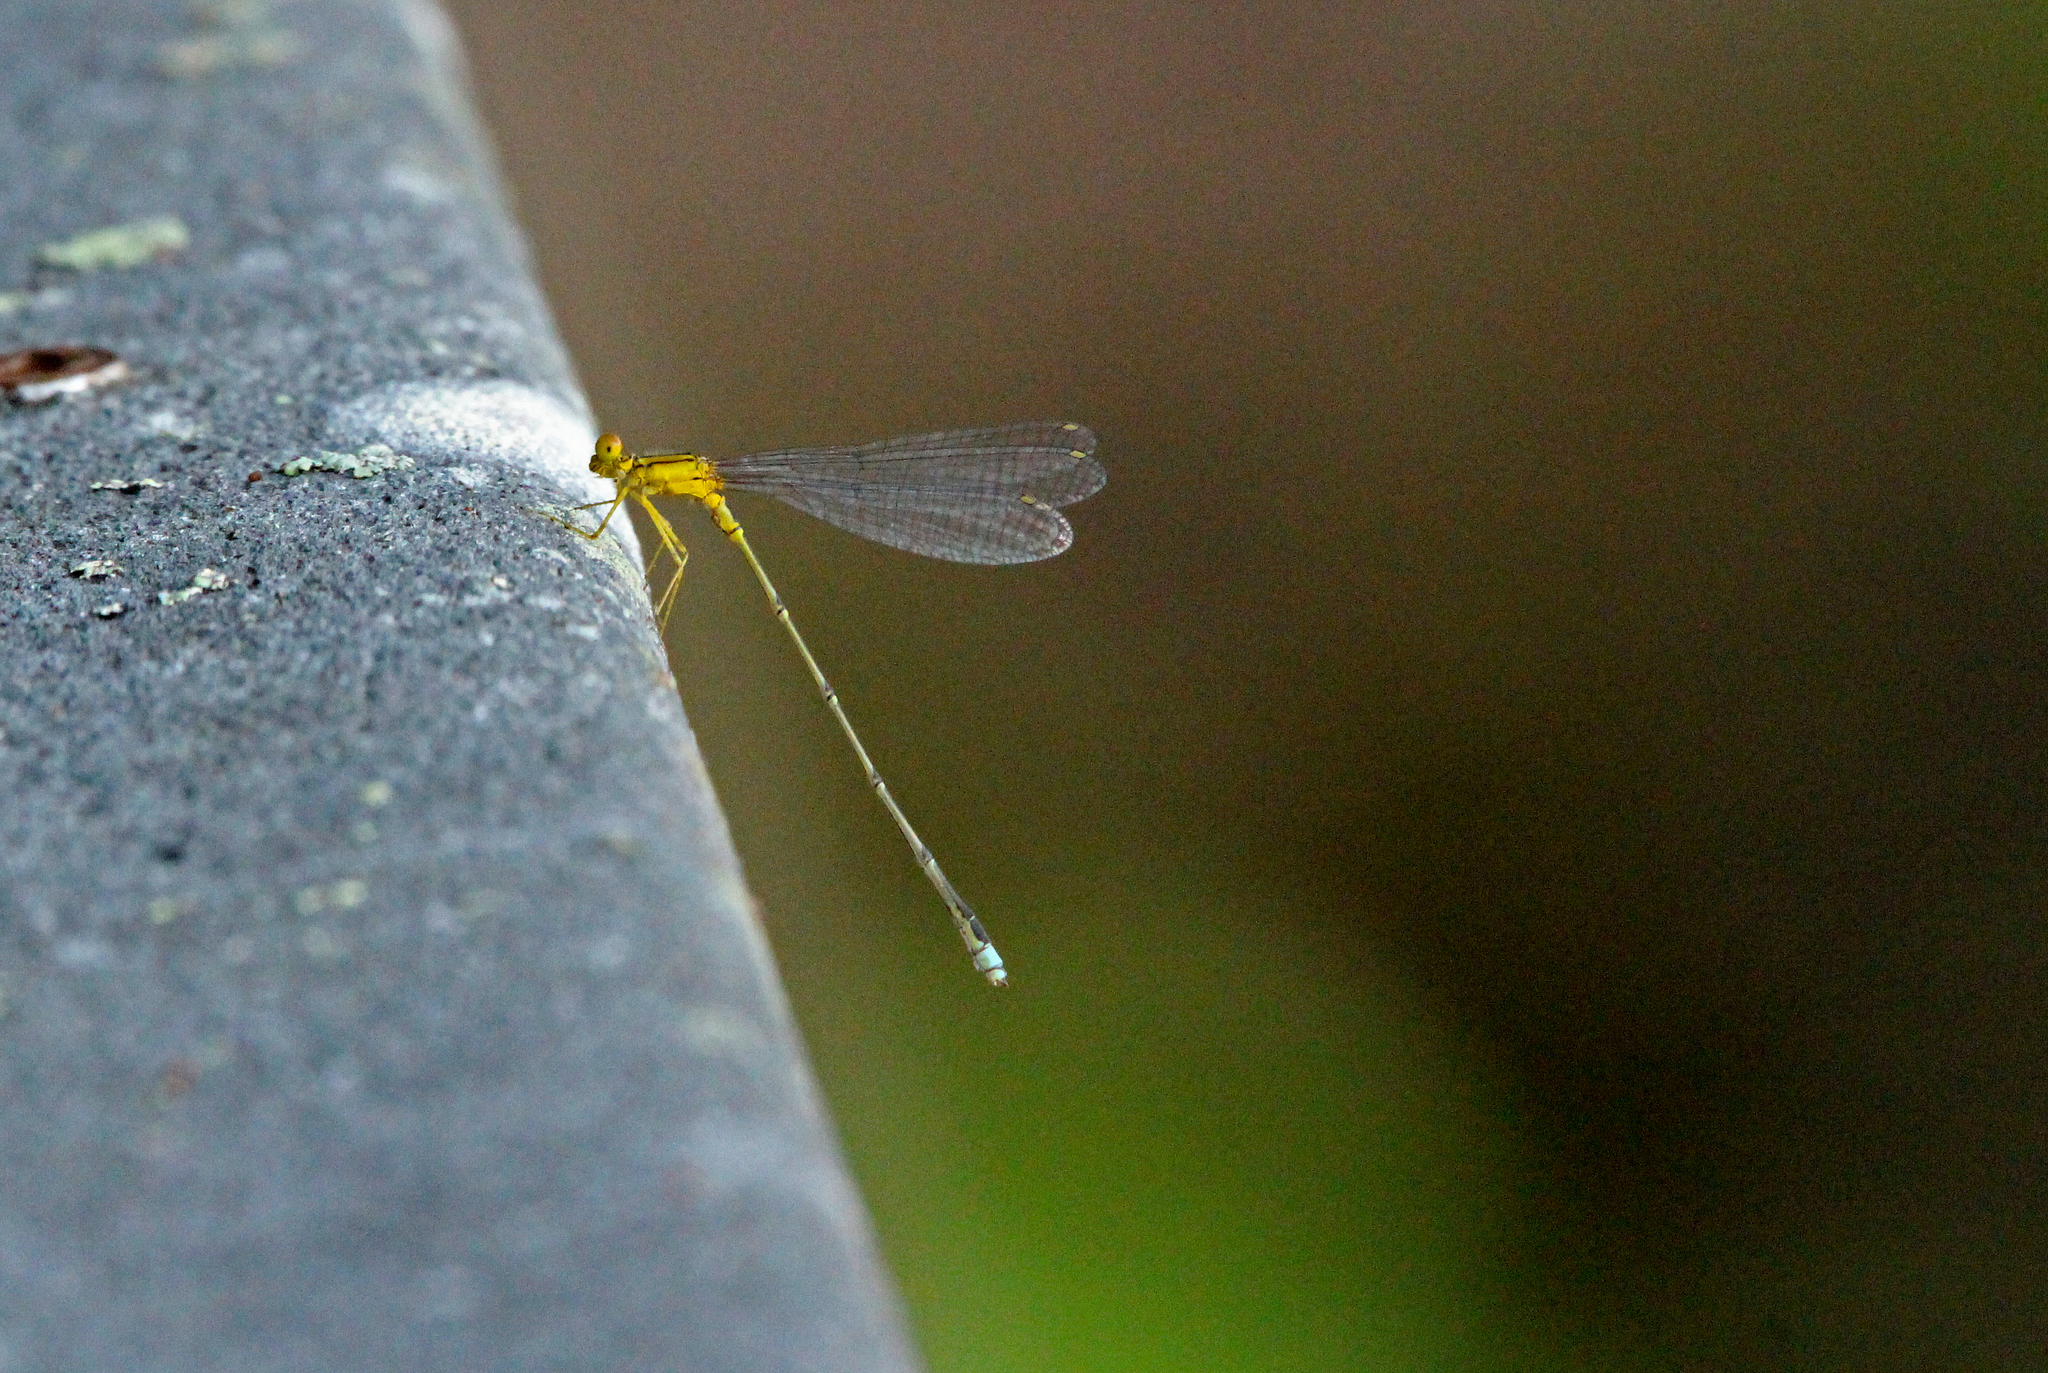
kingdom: Animalia
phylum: Arthropoda
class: Insecta
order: Odonata
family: Coenagrionidae
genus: Enallagma
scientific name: Enallagma vesperum
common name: Vesper bluet
